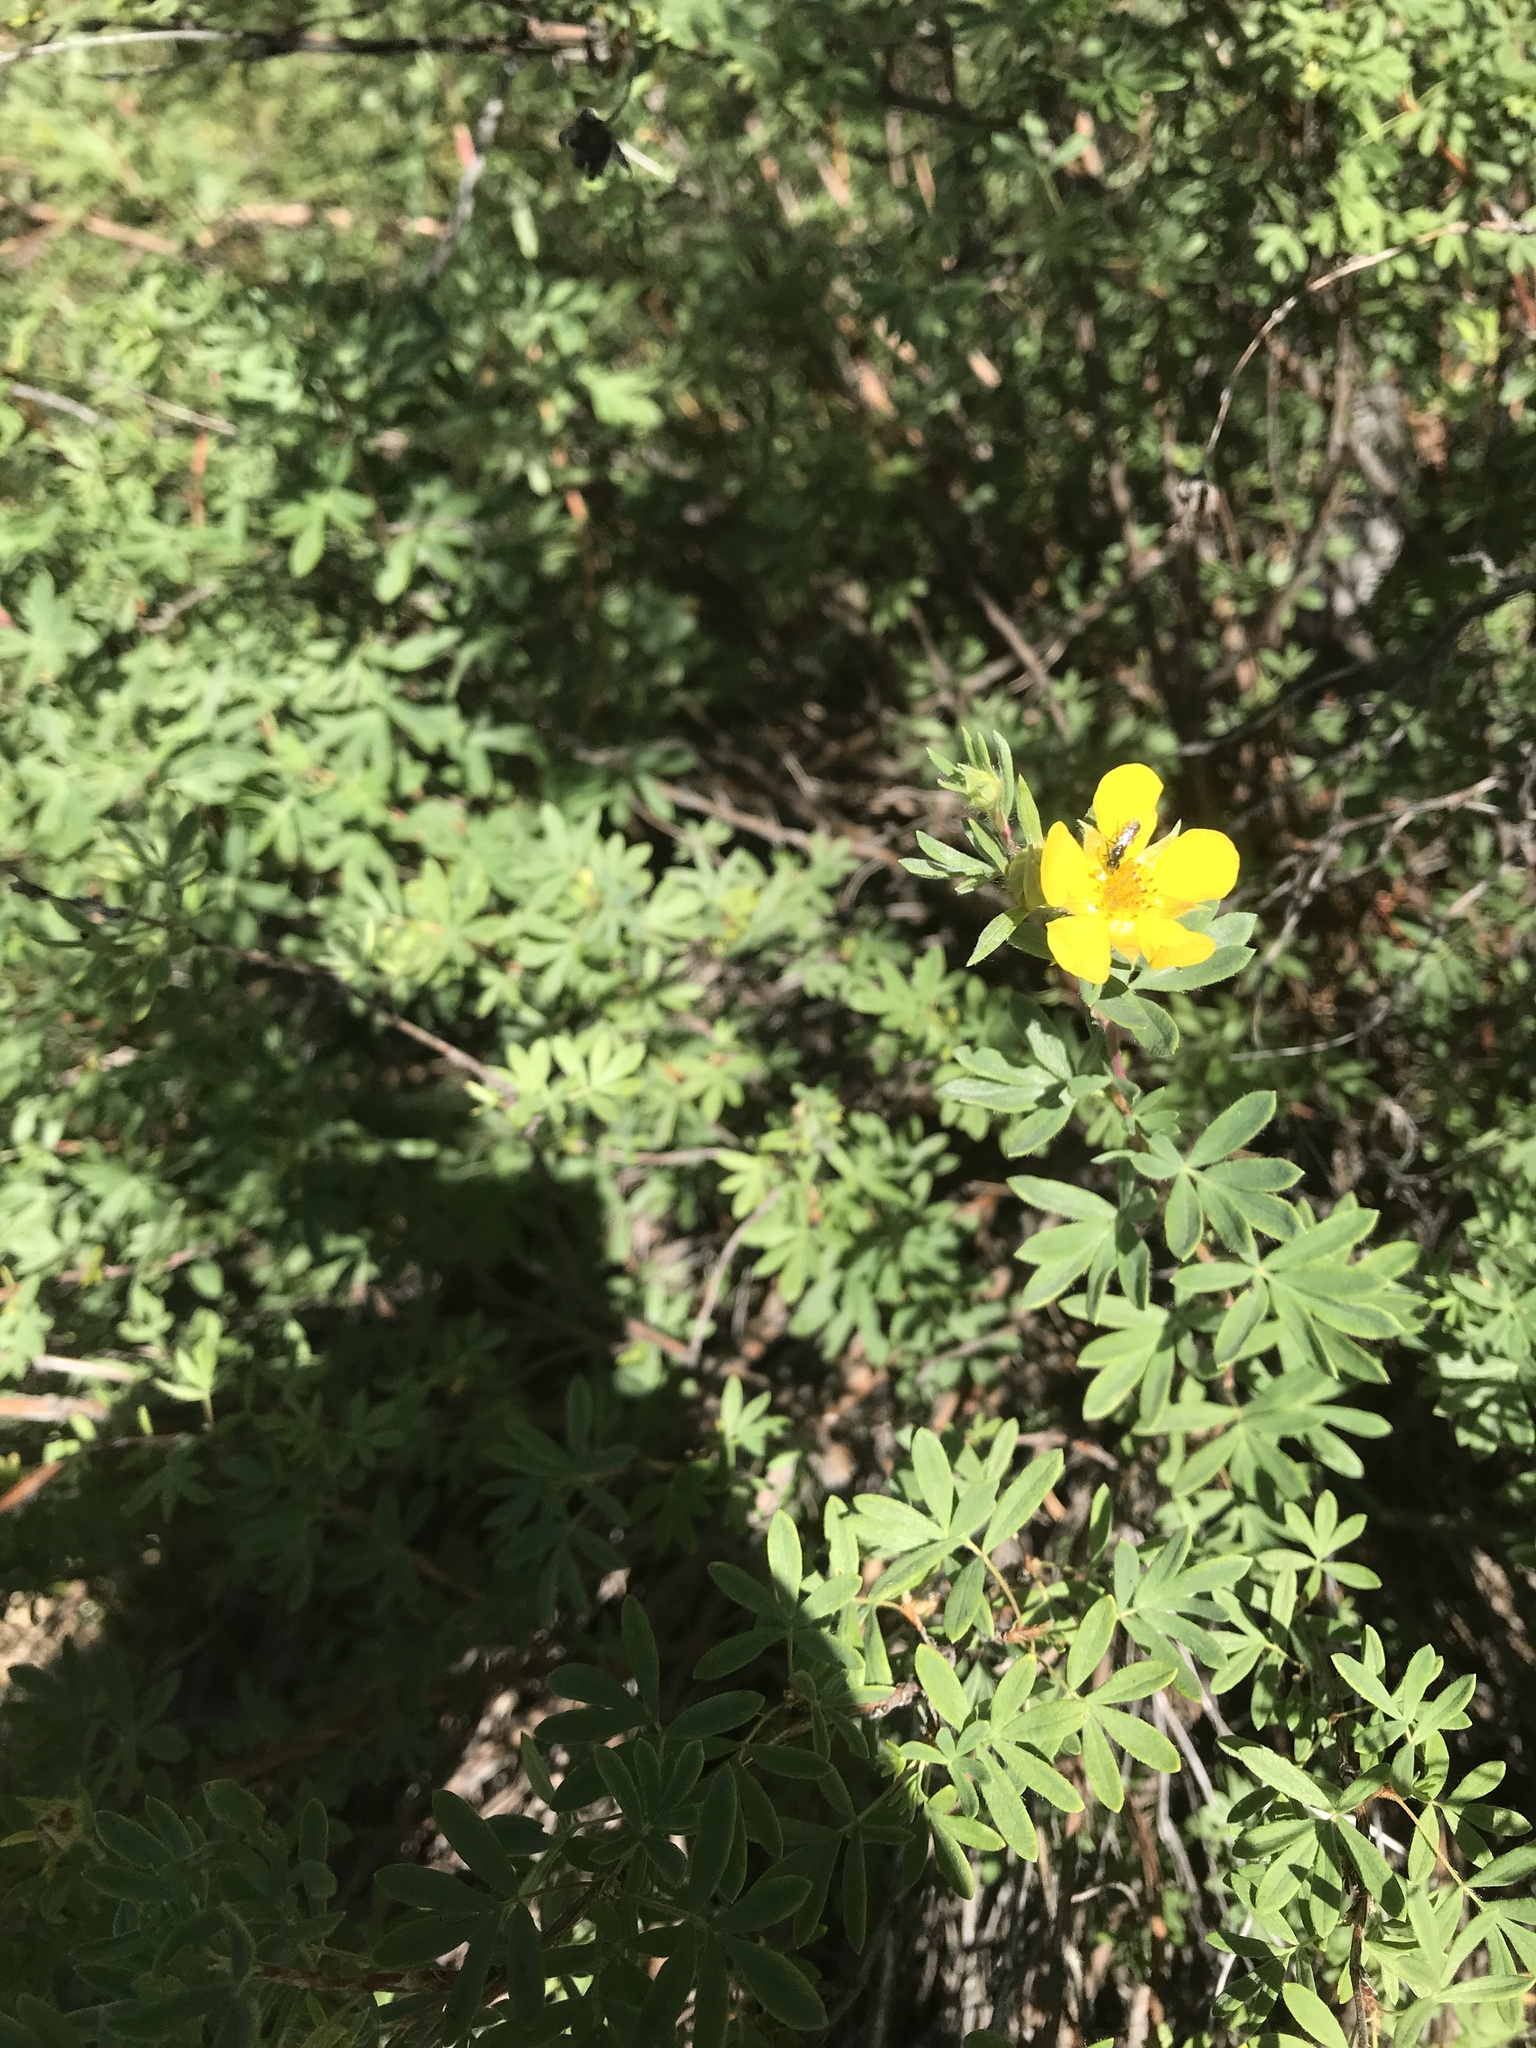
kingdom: Plantae
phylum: Tracheophyta
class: Magnoliopsida
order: Rosales
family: Rosaceae
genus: Dasiphora
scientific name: Dasiphora fruticosa
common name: Shrubby cinquefoil
